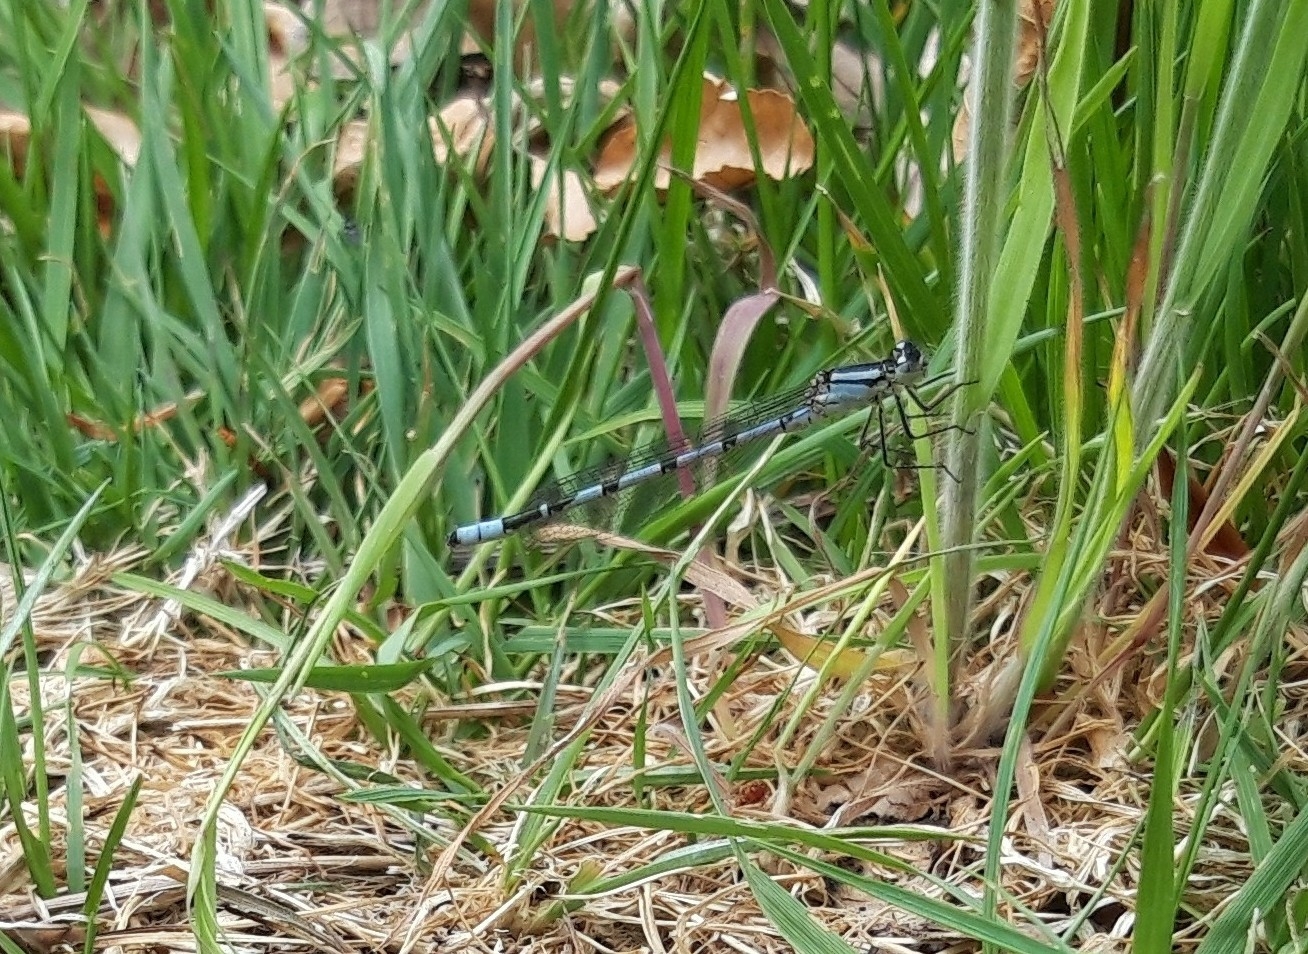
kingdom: Animalia
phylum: Arthropoda
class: Insecta
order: Odonata
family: Coenagrionidae
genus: Enallagma
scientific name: Enallagma cyathigerum
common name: Common blue damselfly
